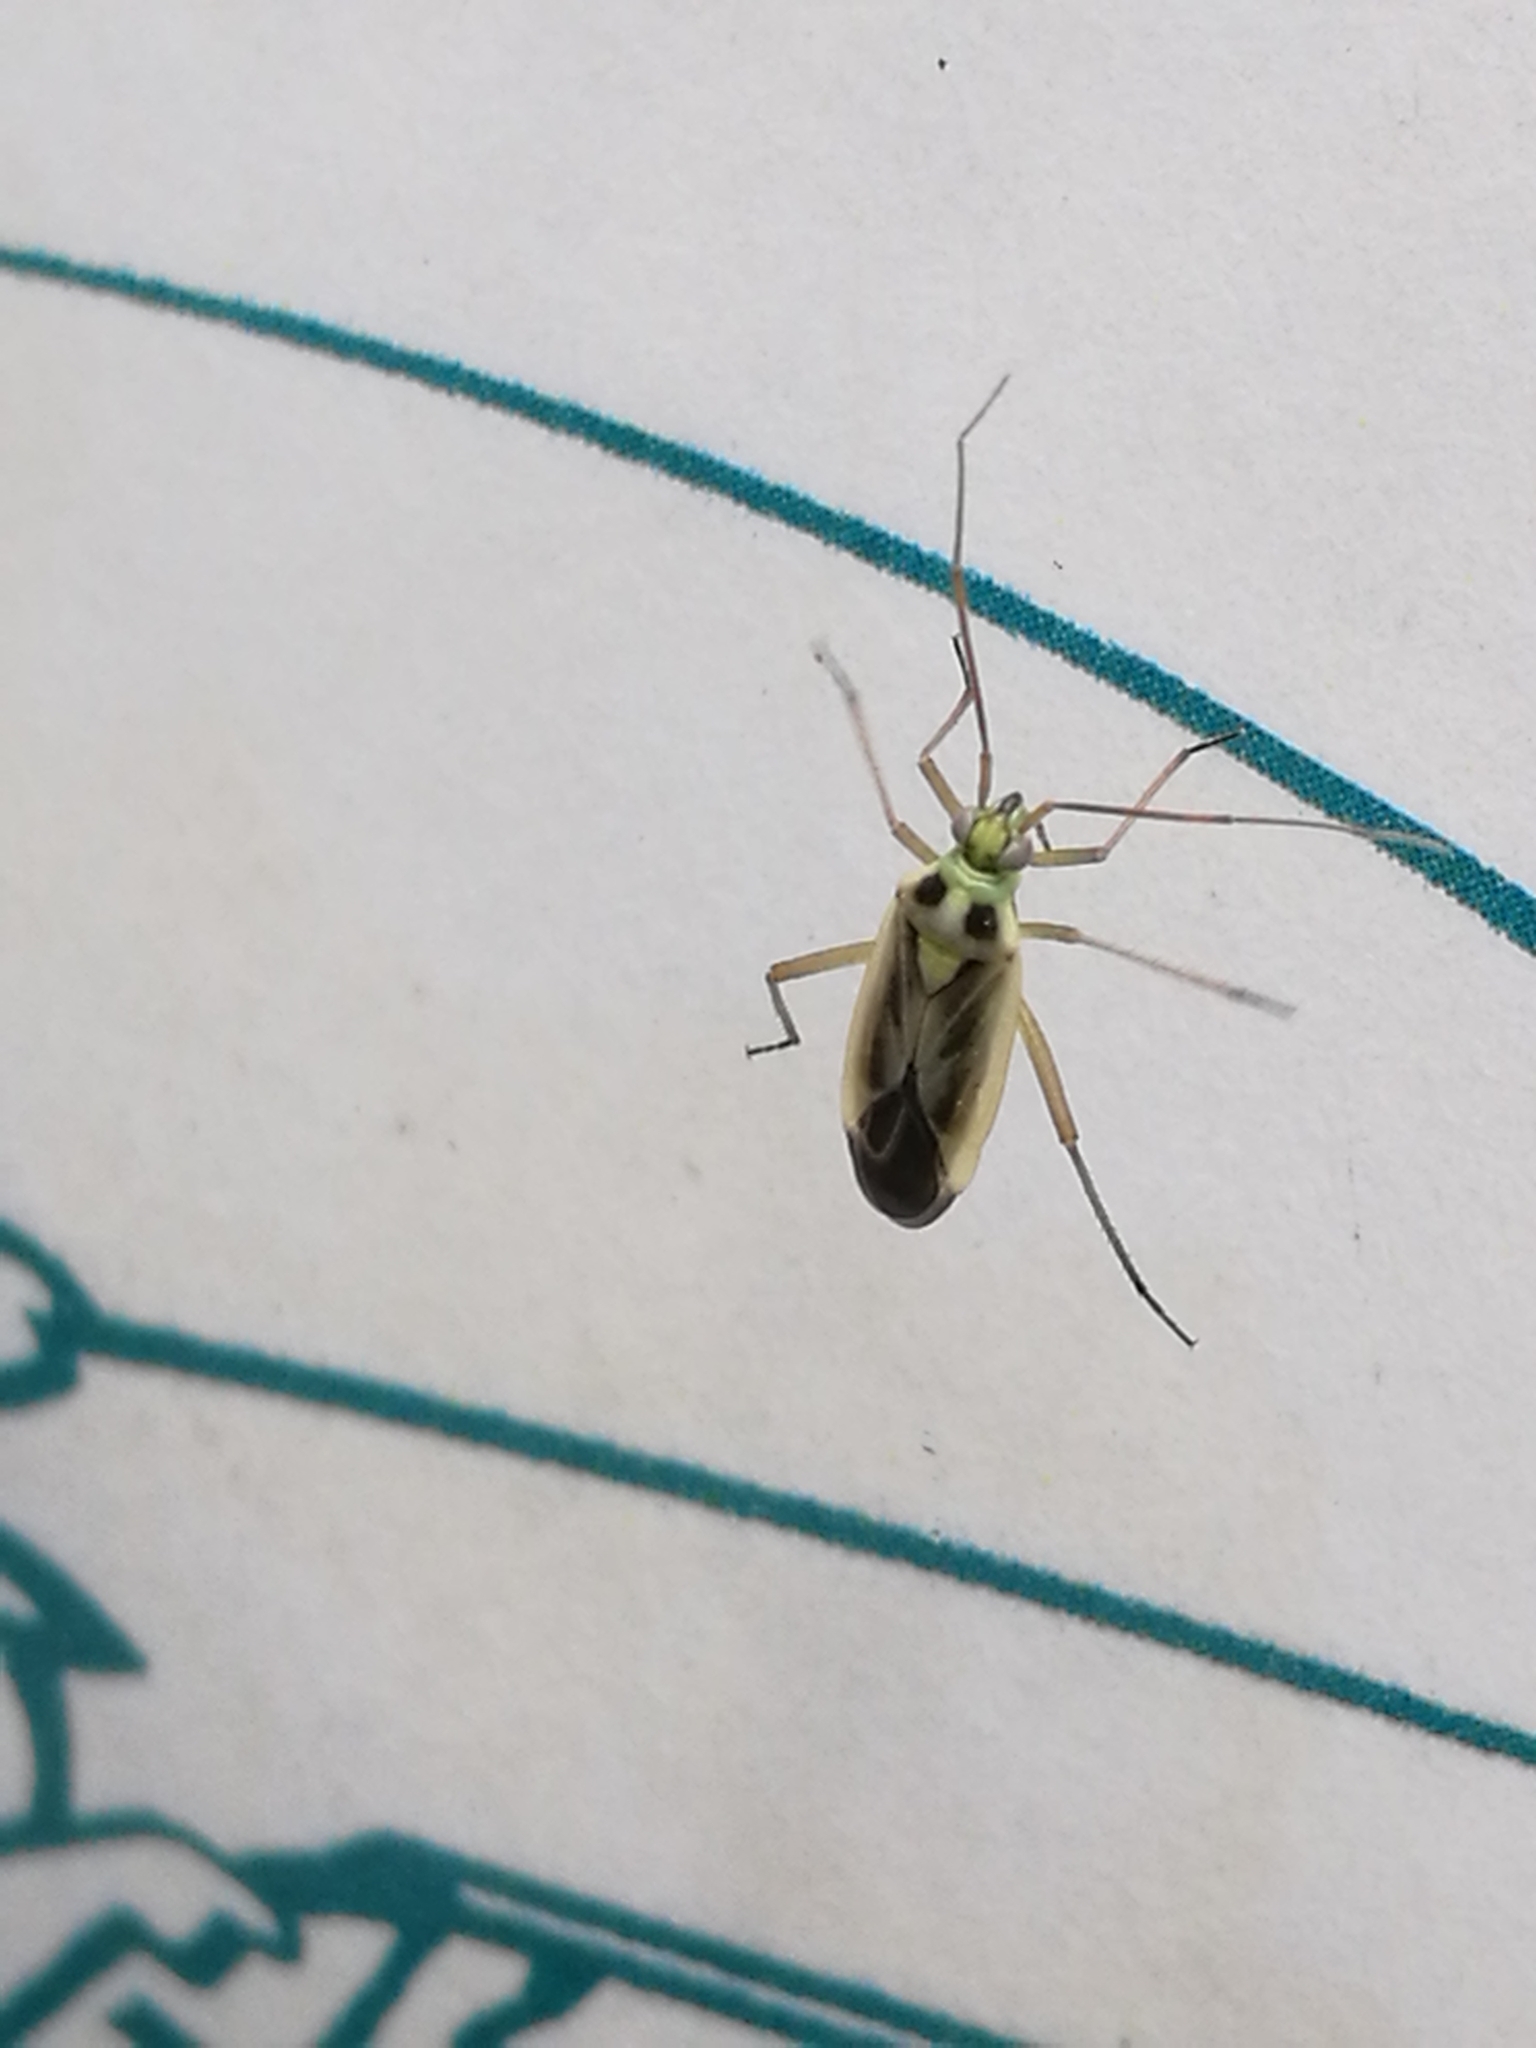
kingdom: Animalia
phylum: Arthropoda
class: Insecta
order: Hemiptera
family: Miridae
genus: Stenotus
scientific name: Stenotus binotatus
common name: Plant bug
